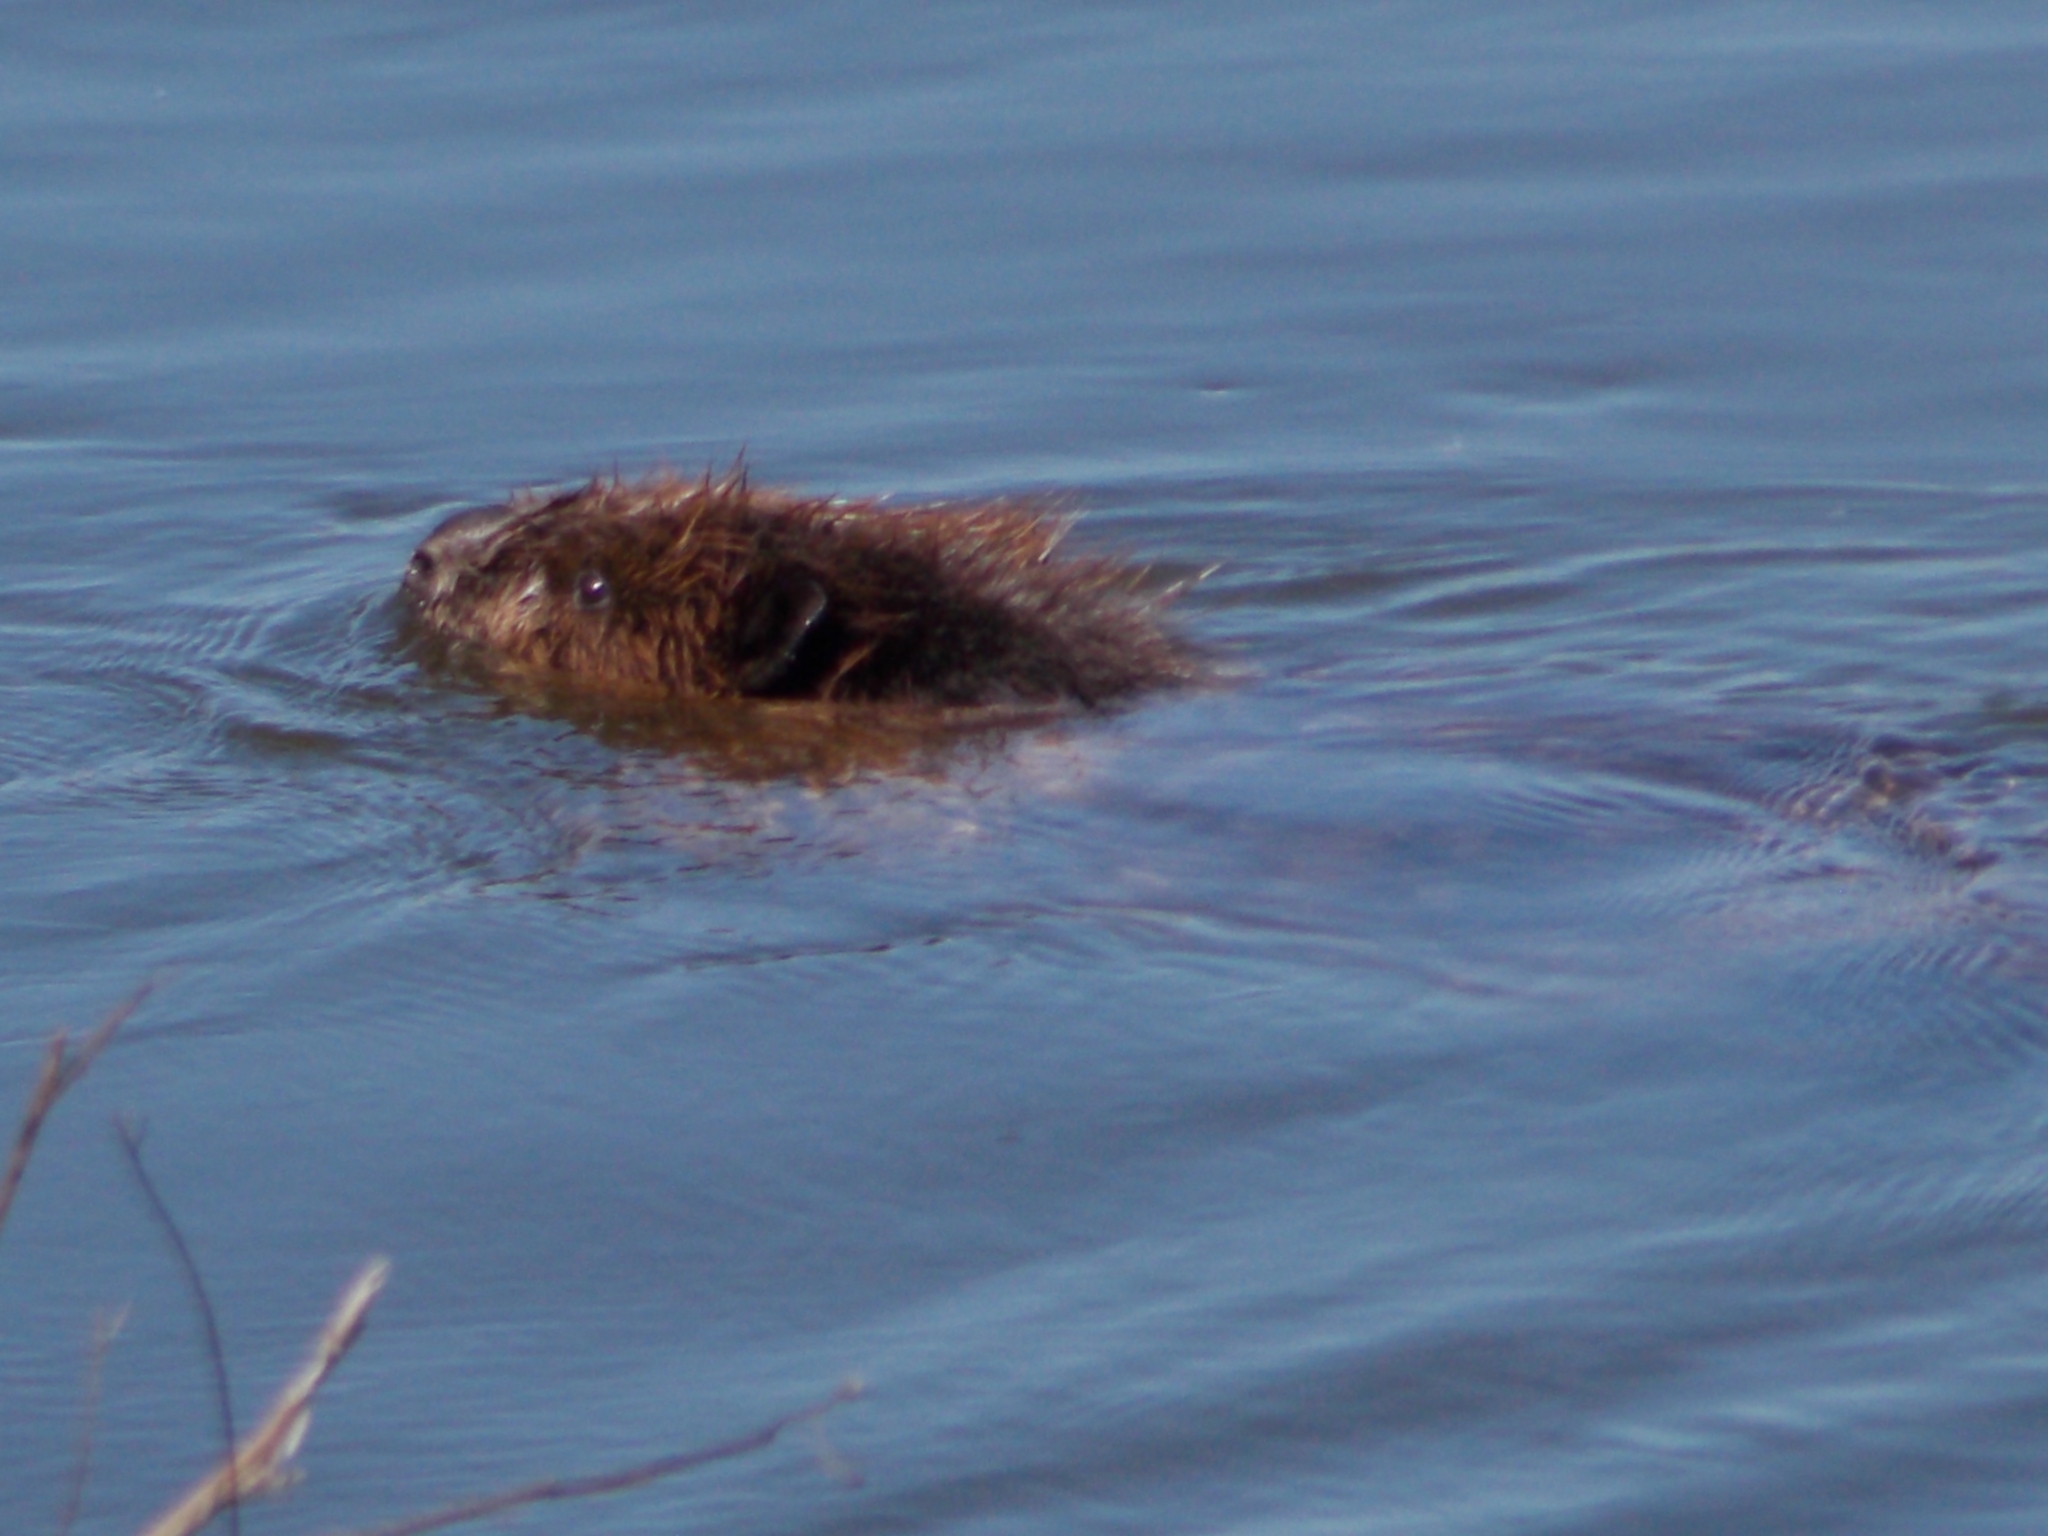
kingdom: Animalia
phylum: Chordata
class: Mammalia
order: Rodentia
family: Castoridae
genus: Castor
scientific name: Castor fiber
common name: Eurasian beaver
